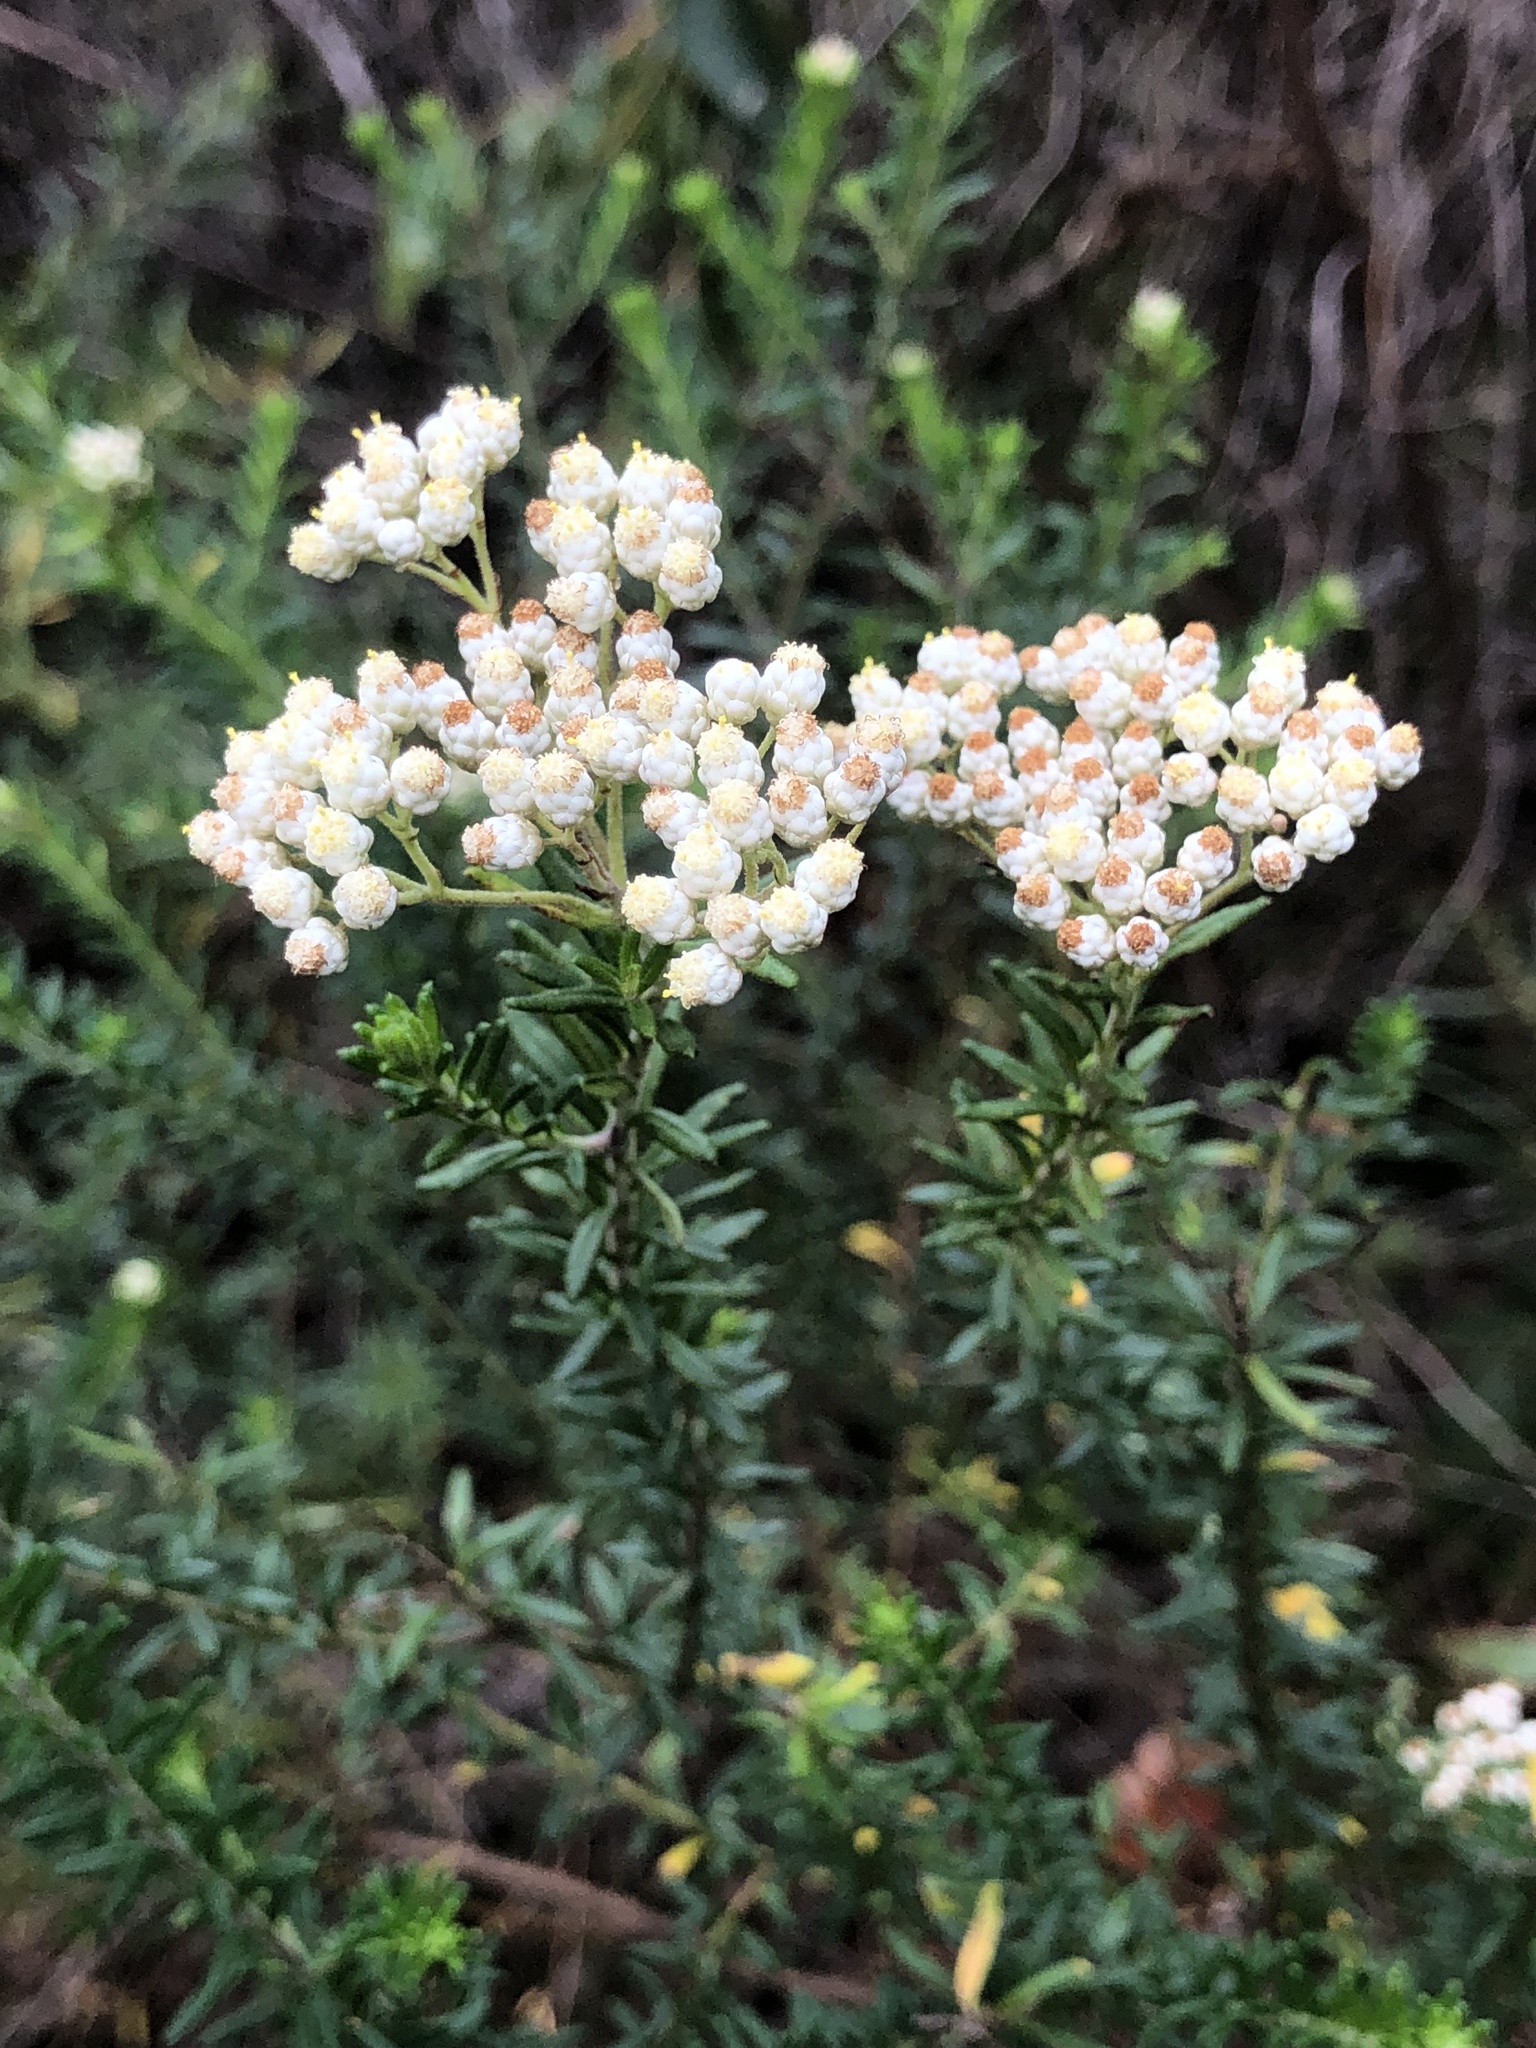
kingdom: Plantae
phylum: Tracheophyta
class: Magnoliopsida
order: Asterales
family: Asteraceae
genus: Ozothamnus
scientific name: Ozothamnus diosmifolius
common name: White-dogwood
